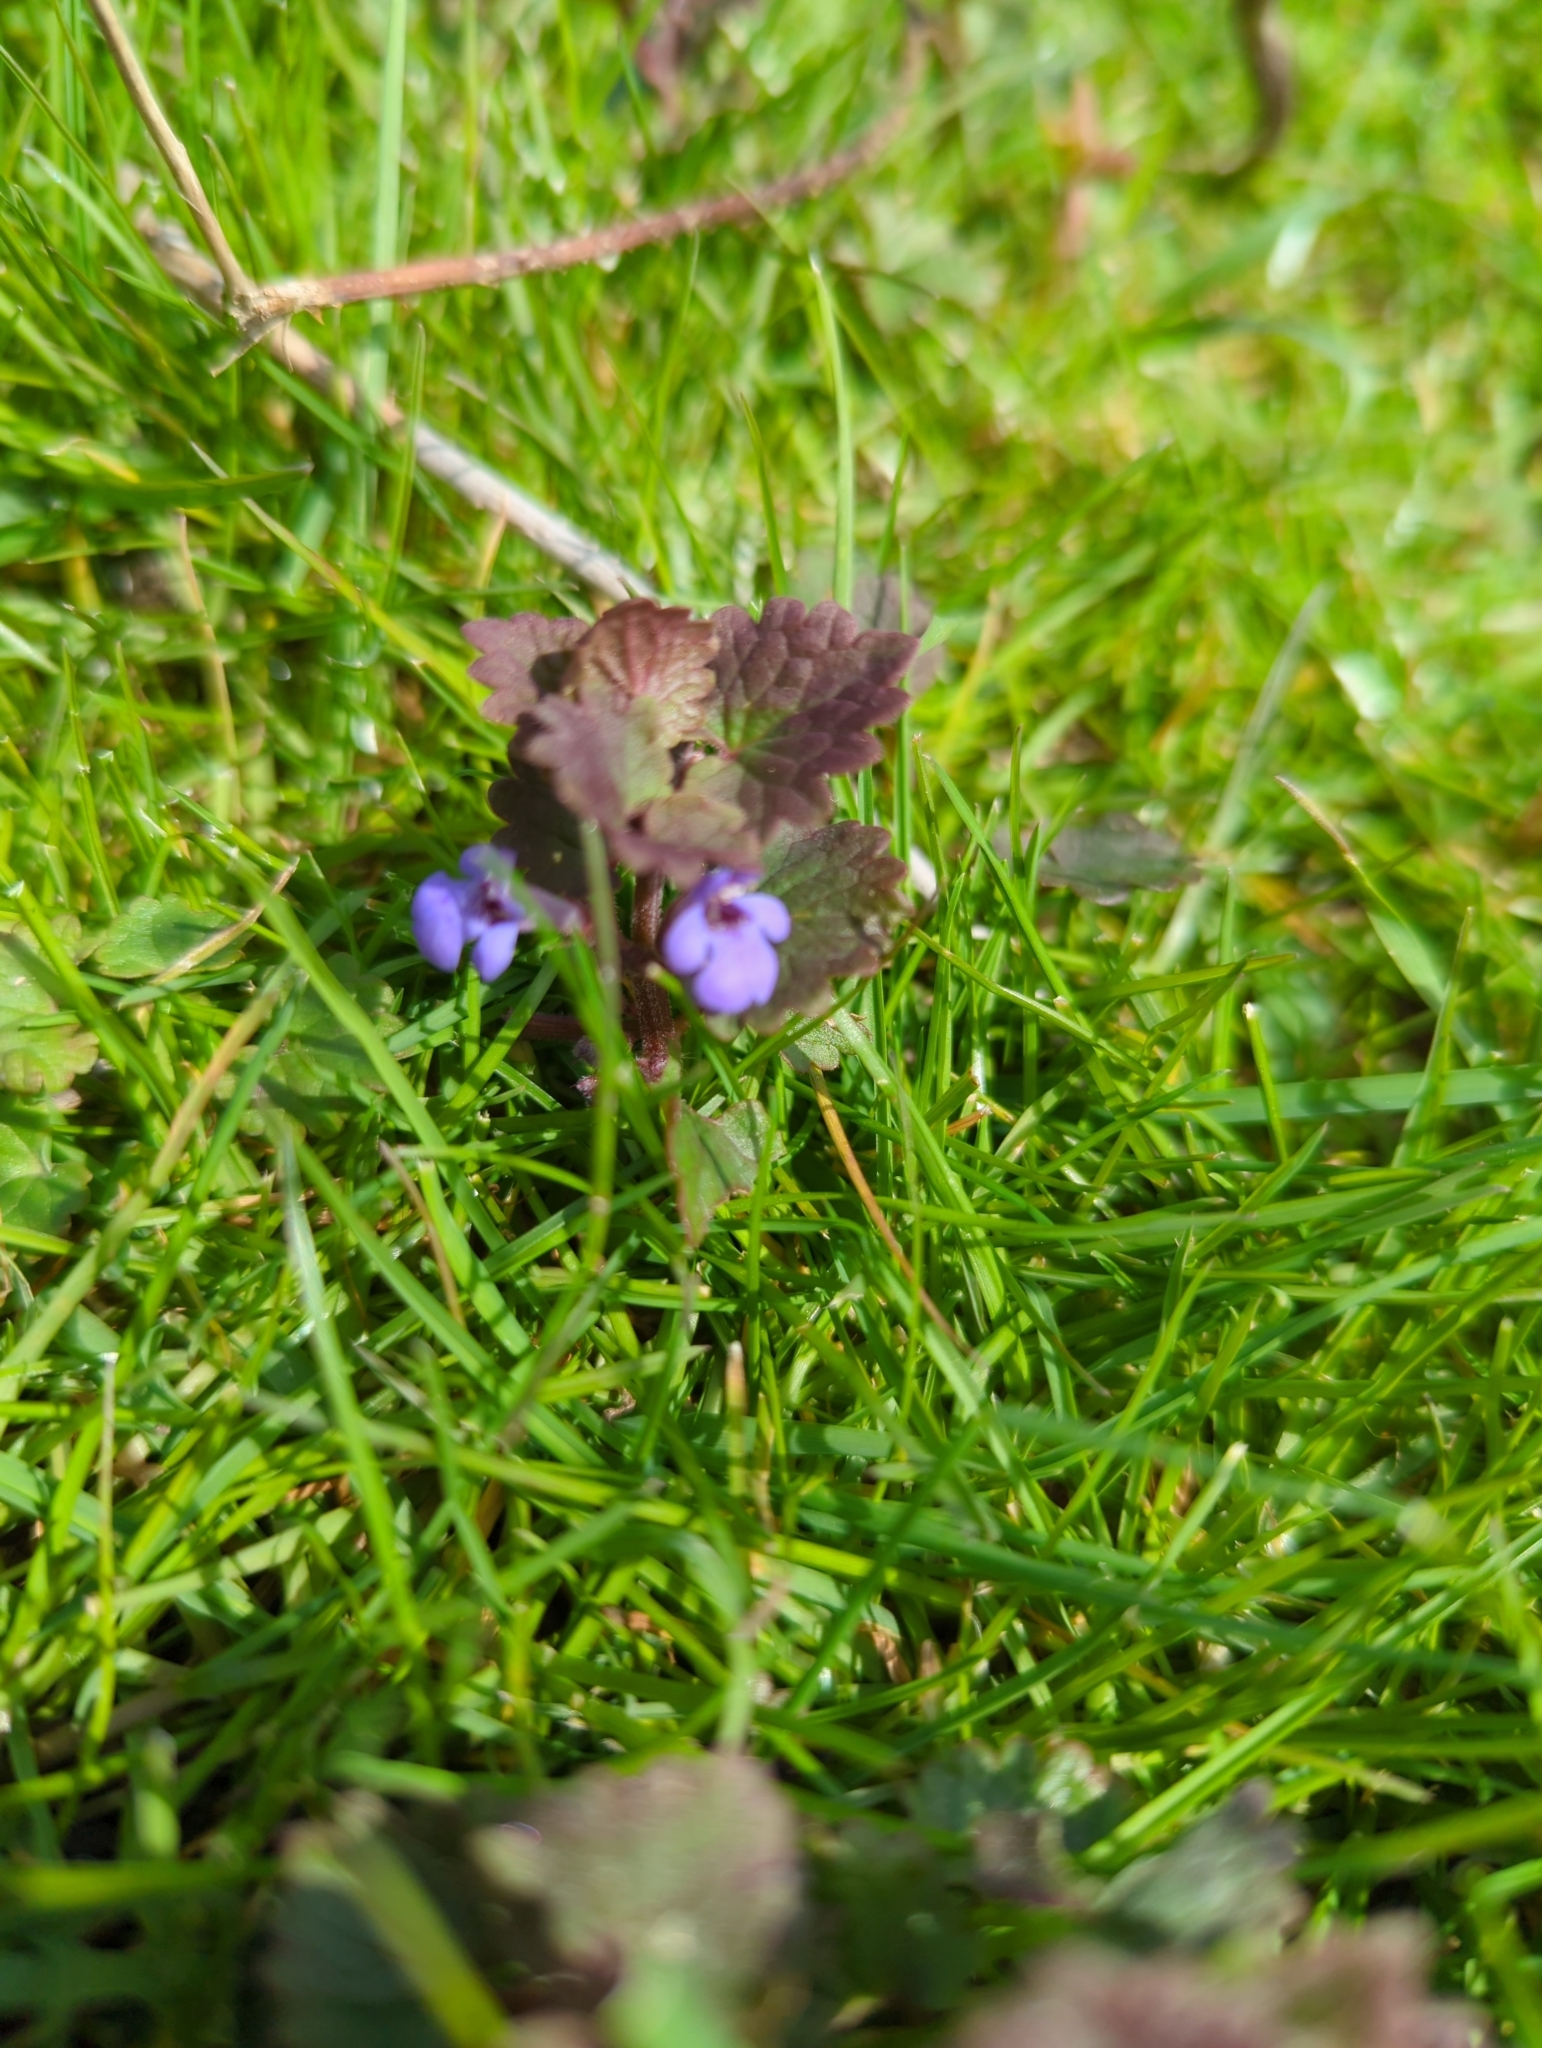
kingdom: Plantae
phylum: Tracheophyta
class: Magnoliopsida
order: Lamiales
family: Lamiaceae
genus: Glechoma
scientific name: Glechoma hederacea
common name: Ground ivy
